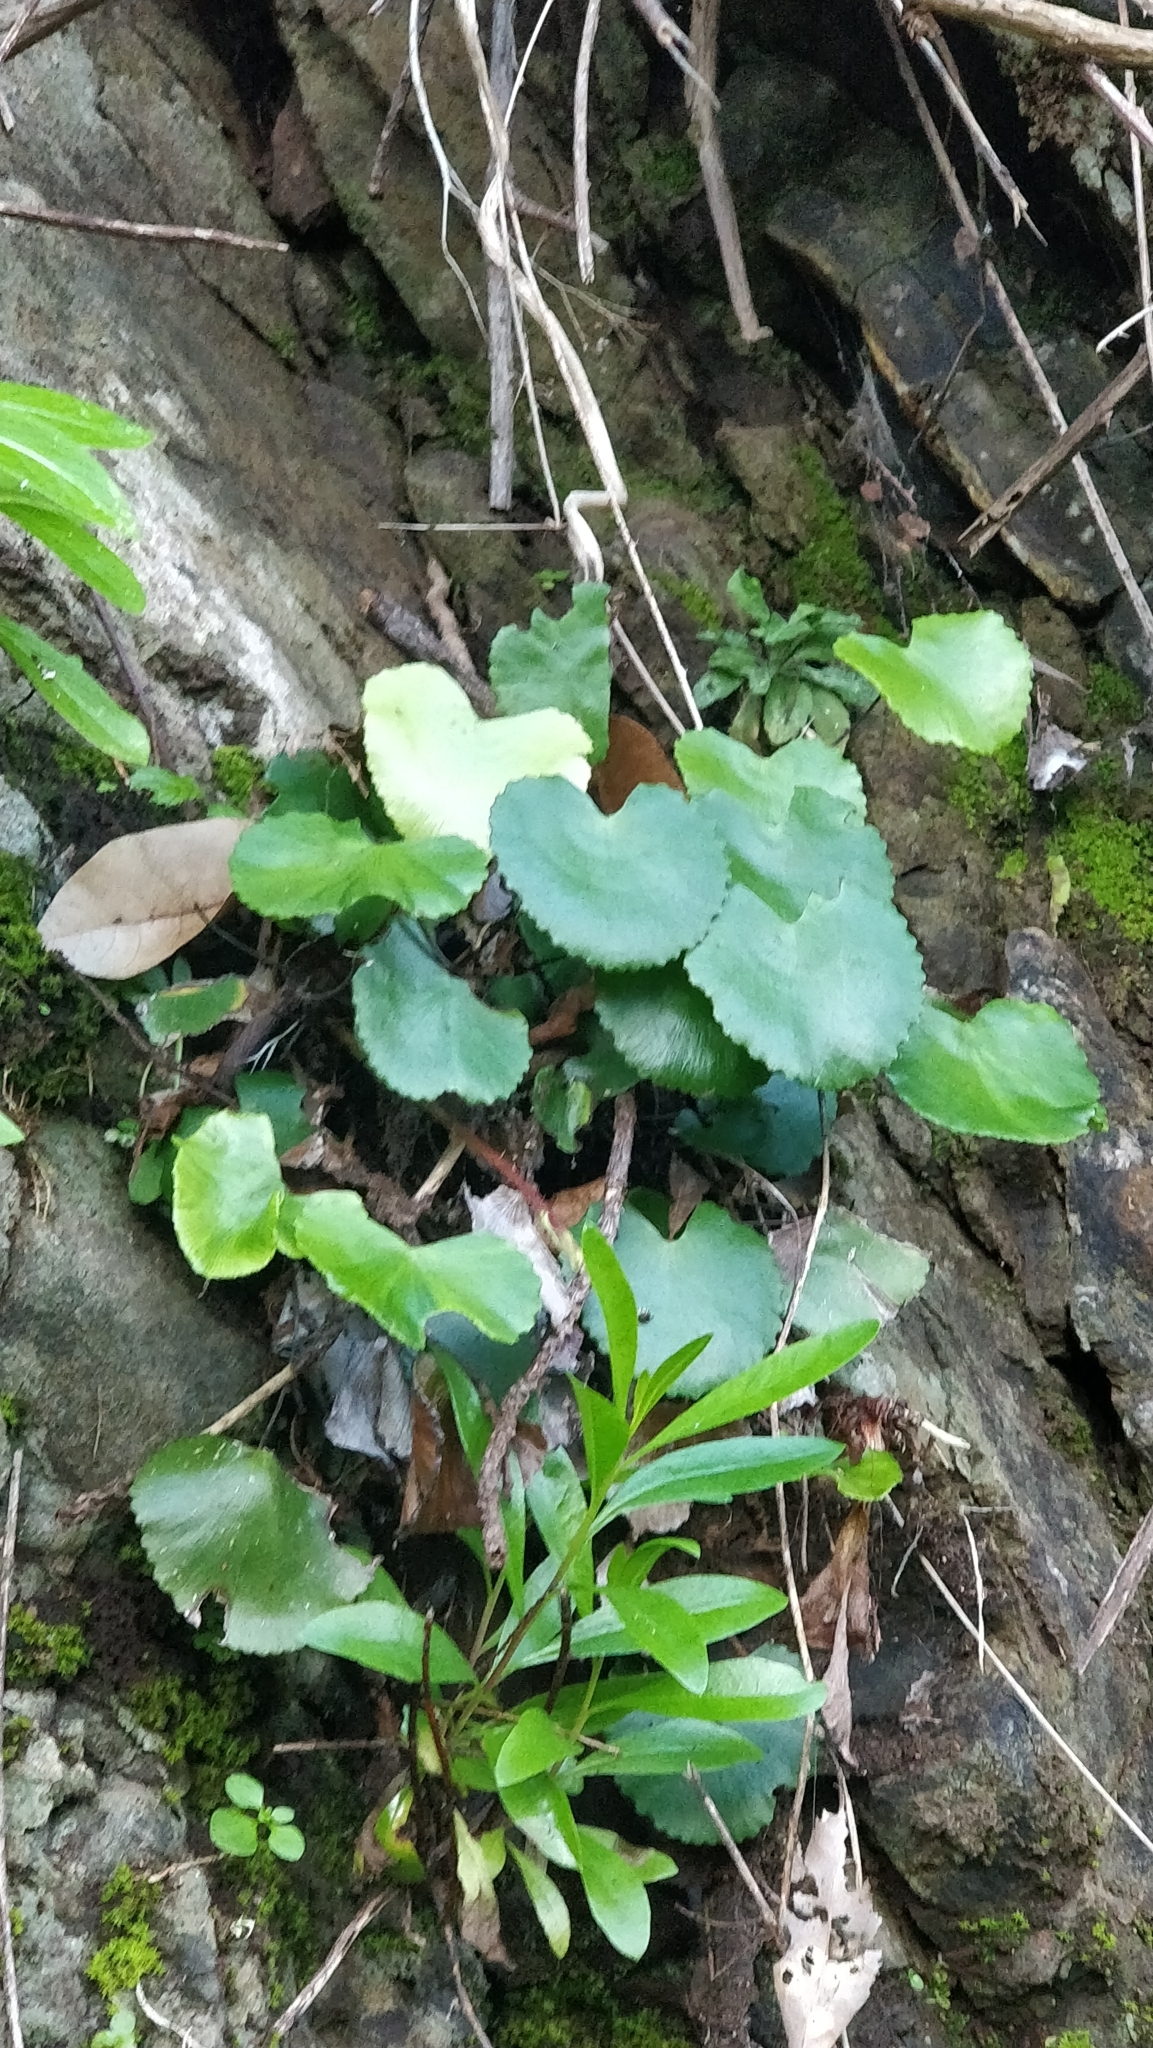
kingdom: Plantae
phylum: Tracheophyta
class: Polypodiopsida
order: Polypodiales
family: Pteridaceae
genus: Adiantum
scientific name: Adiantum reniforme
